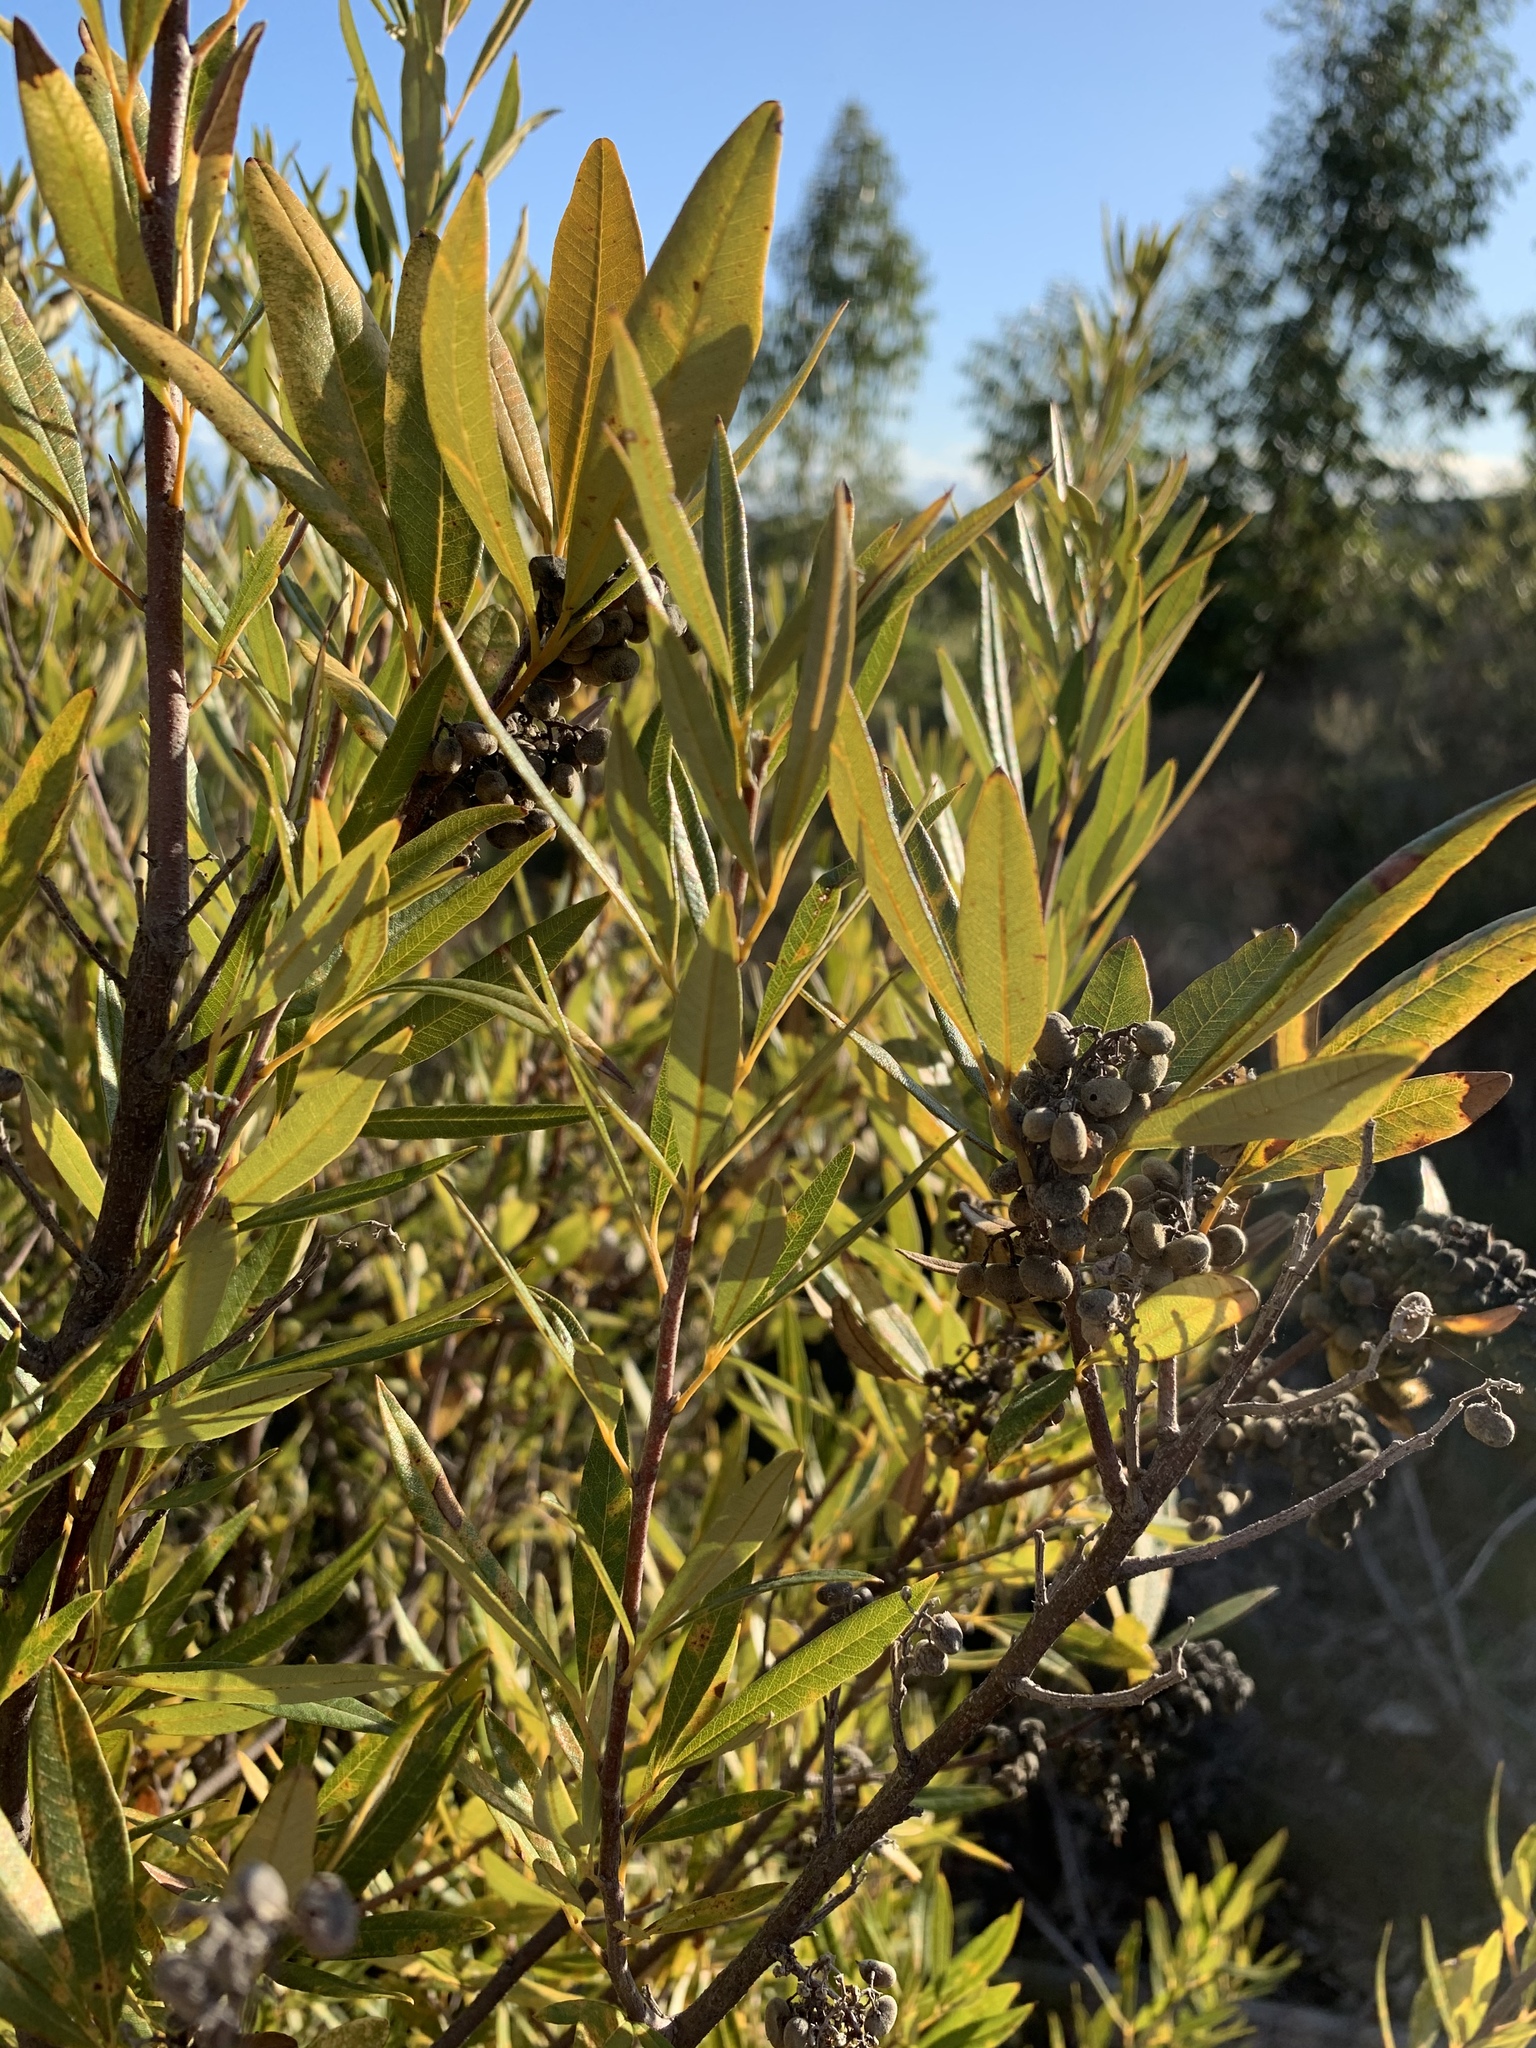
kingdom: Plantae
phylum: Tracheophyta
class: Magnoliopsida
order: Sapindales
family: Anacardiaceae
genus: Searsia
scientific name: Searsia angustifolia
